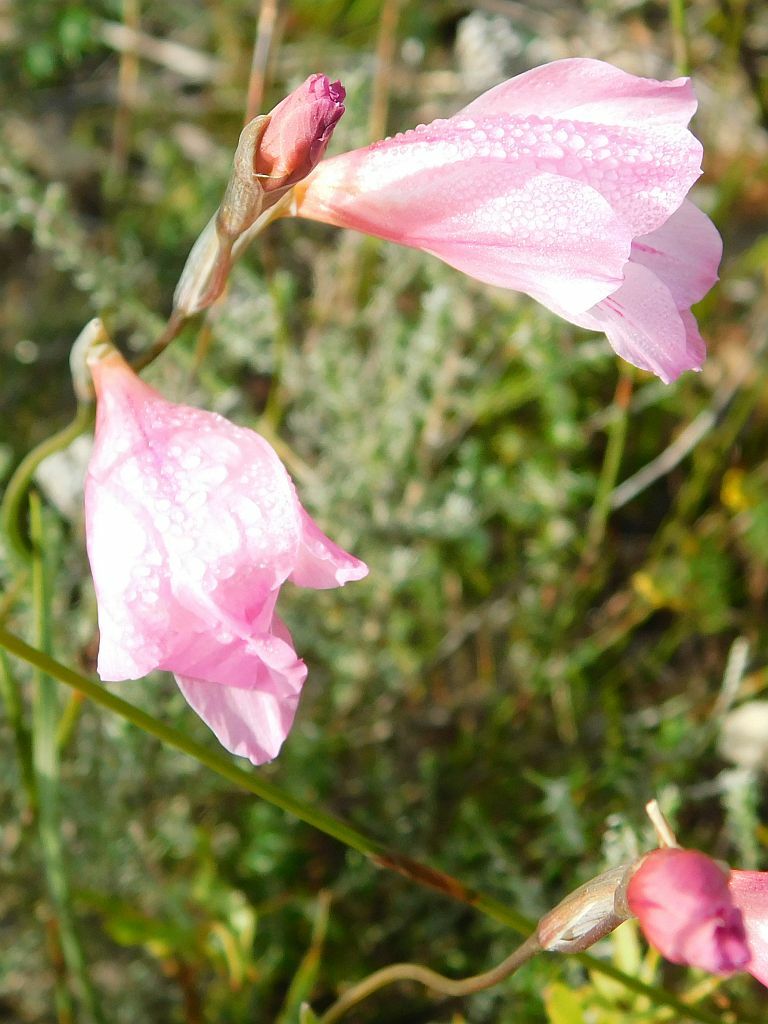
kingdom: Plantae
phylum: Tracheophyta
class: Liliopsida
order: Asparagales
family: Iridaceae
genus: Gladiolus
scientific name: Gladiolus hirsutus
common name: Small pink afrikaner
